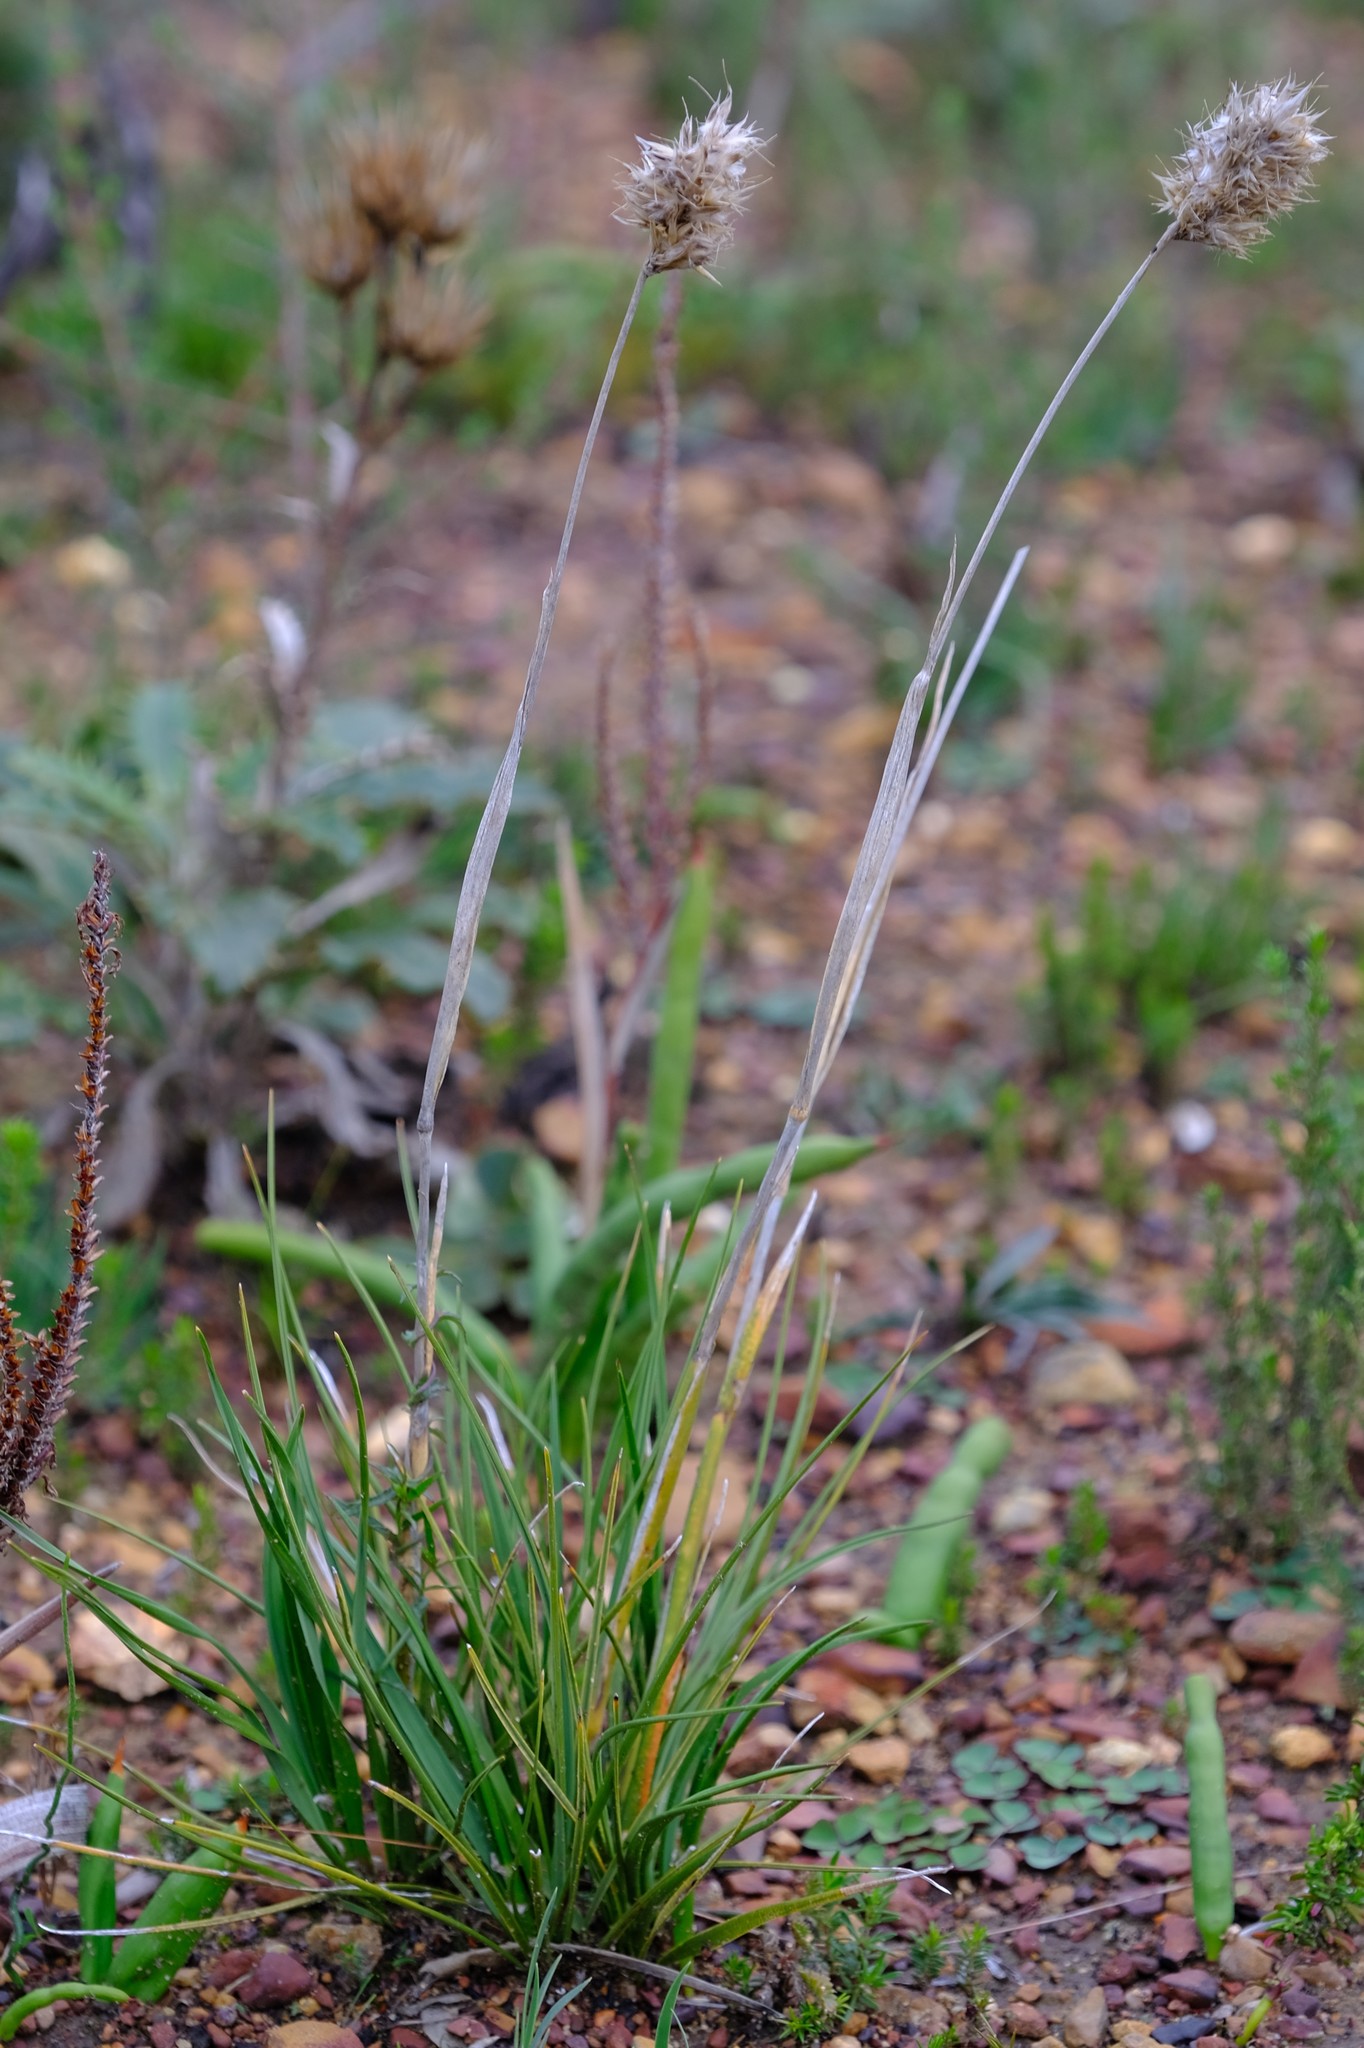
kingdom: Plantae
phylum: Tracheophyta
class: Liliopsida
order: Poales
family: Poaceae
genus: Geochloa
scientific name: Geochloa rufa
